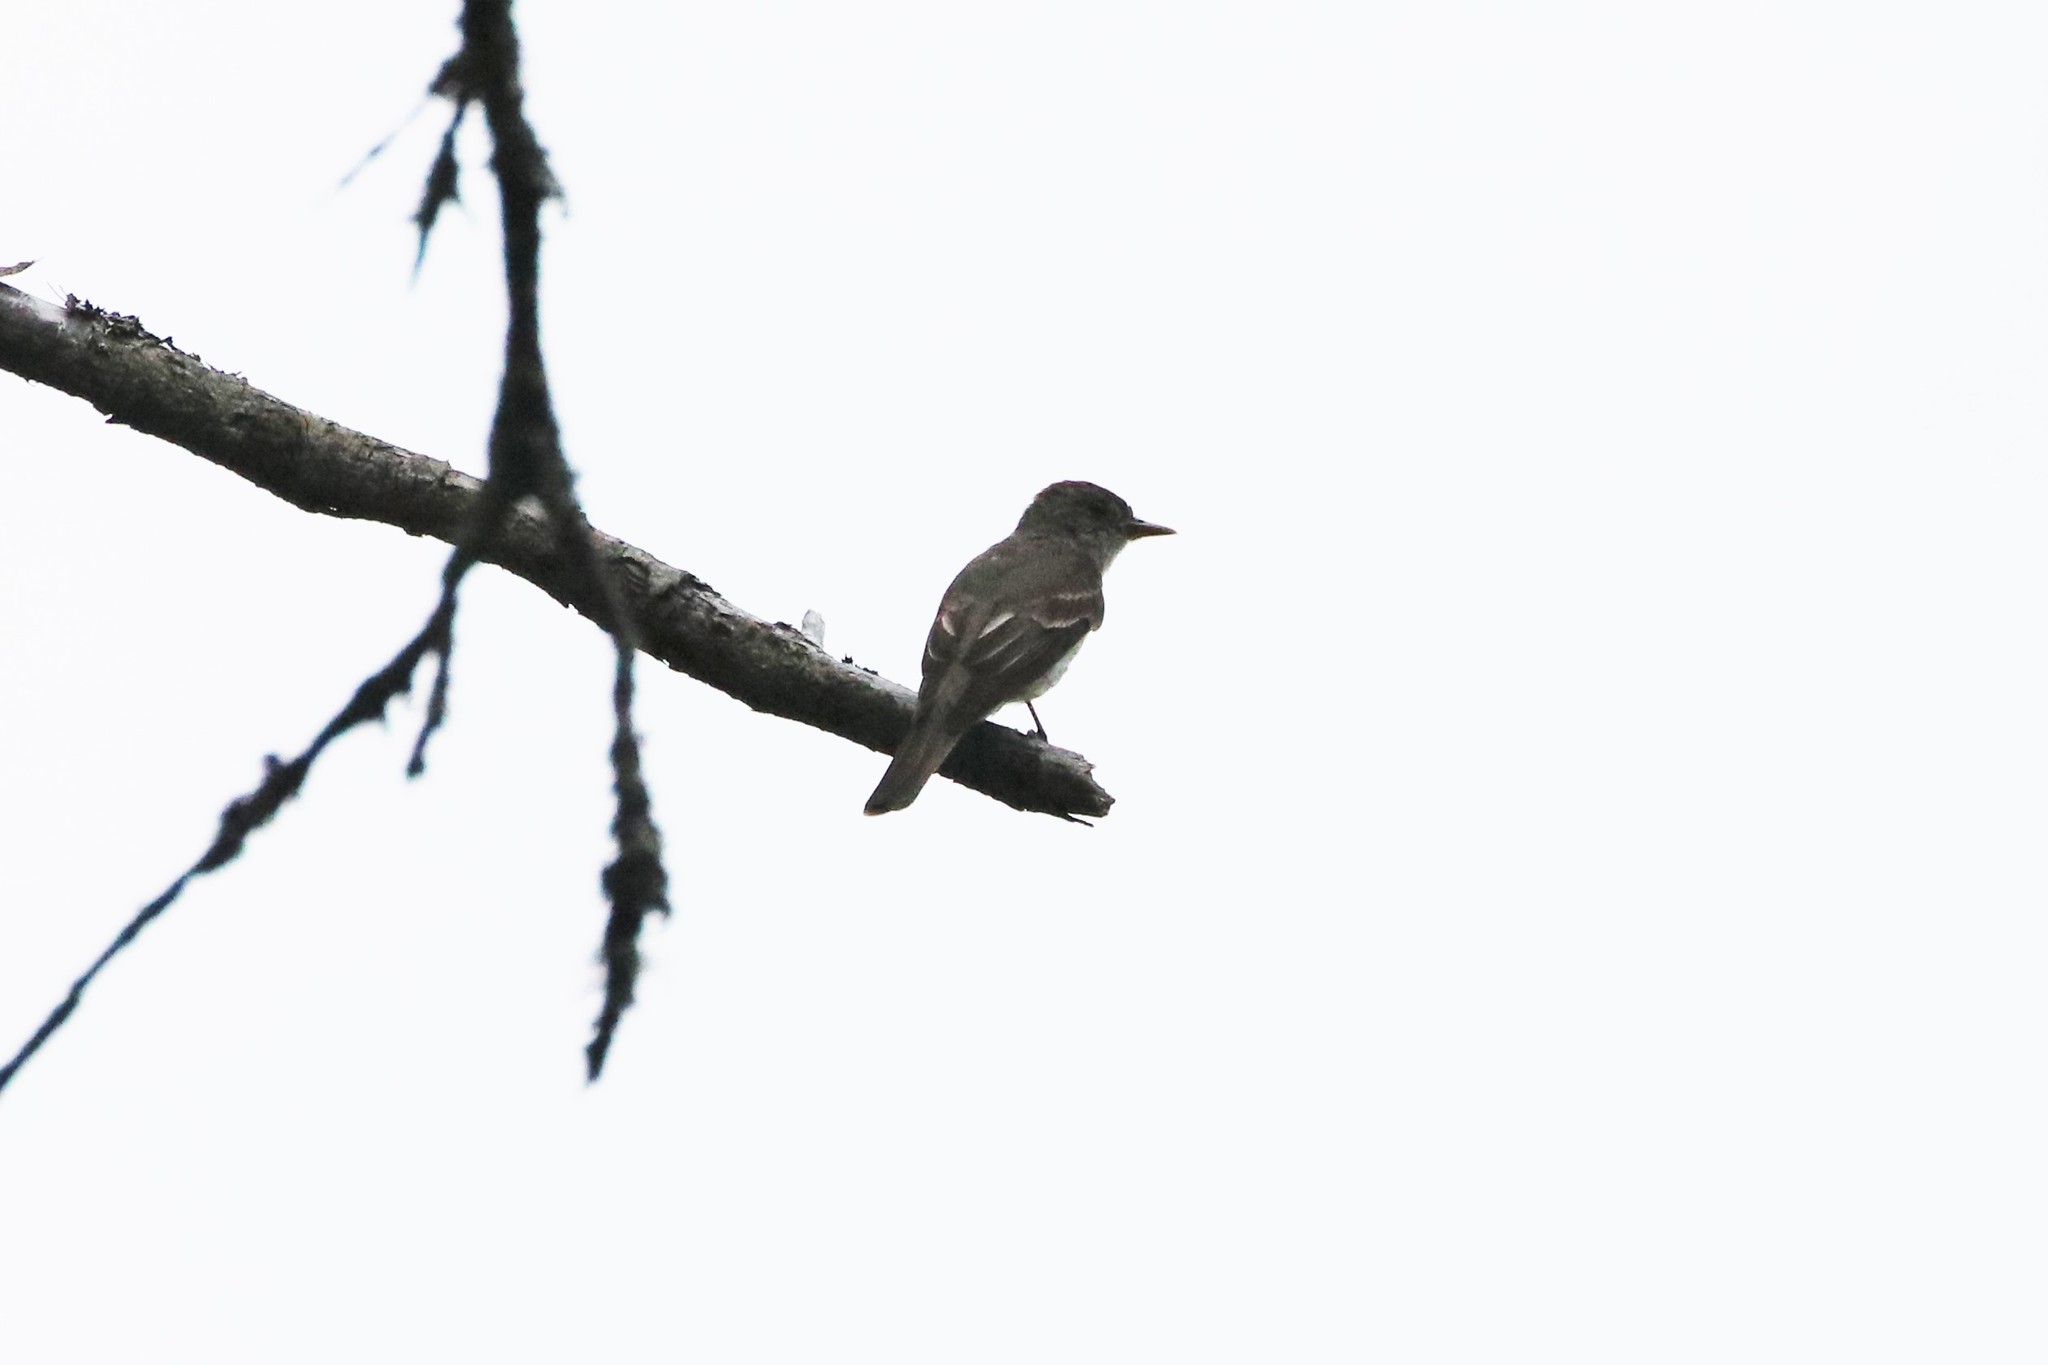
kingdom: Animalia
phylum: Chordata
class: Aves
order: Passeriformes
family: Tyrannidae
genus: Contopus
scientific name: Contopus virens
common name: Eastern wood-pewee
